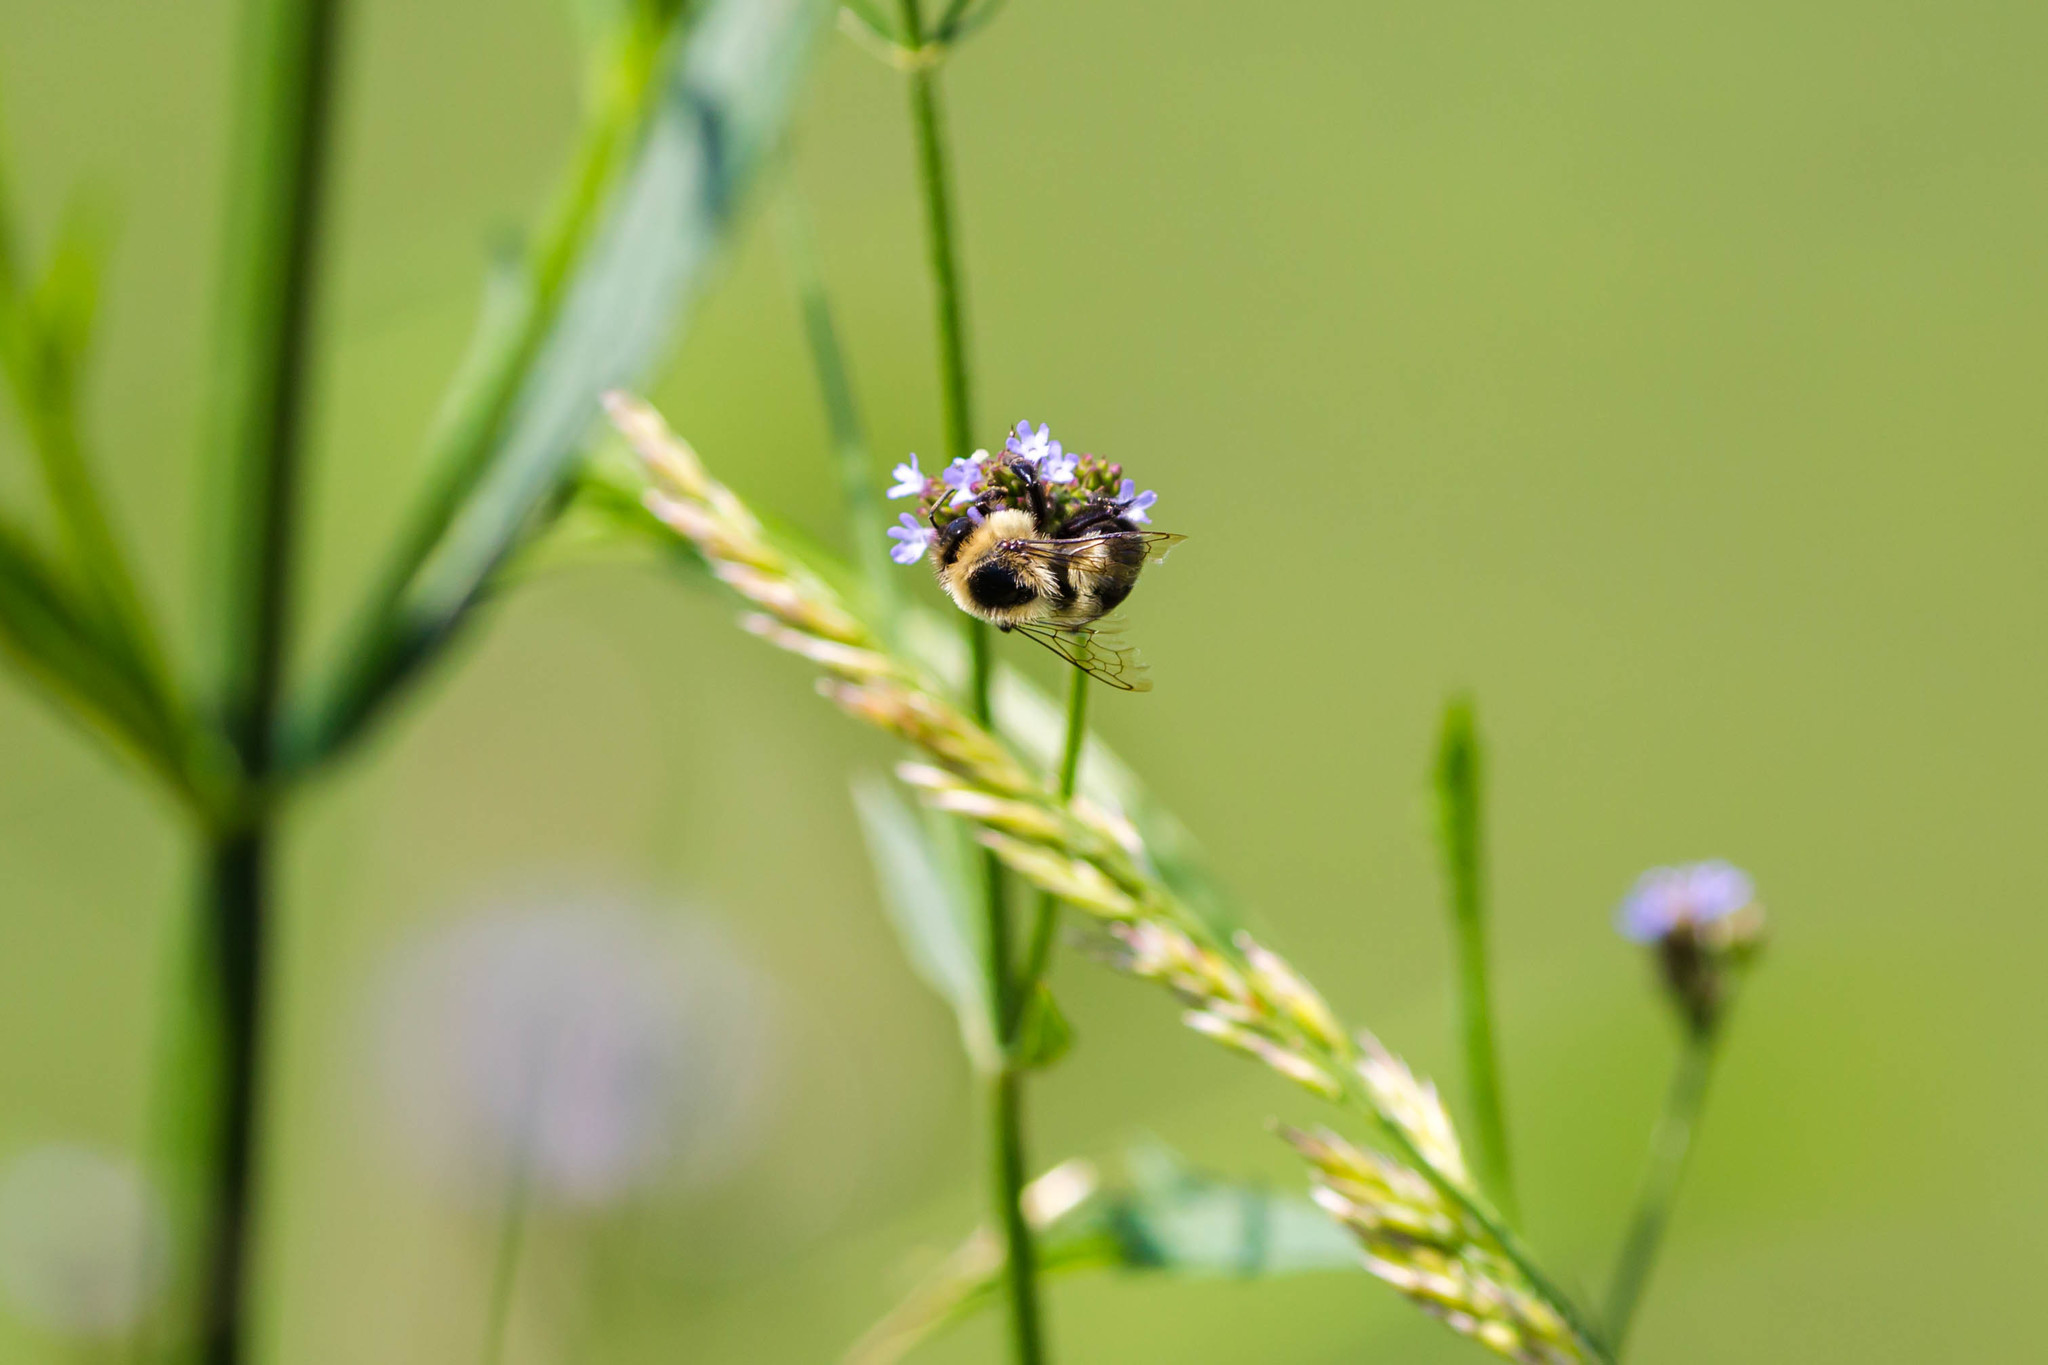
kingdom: Animalia
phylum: Arthropoda
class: Insecta
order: Hymenoptera
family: Apidae
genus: Bombus
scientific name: Bombus impatiens
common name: Common eastern bumble bee
